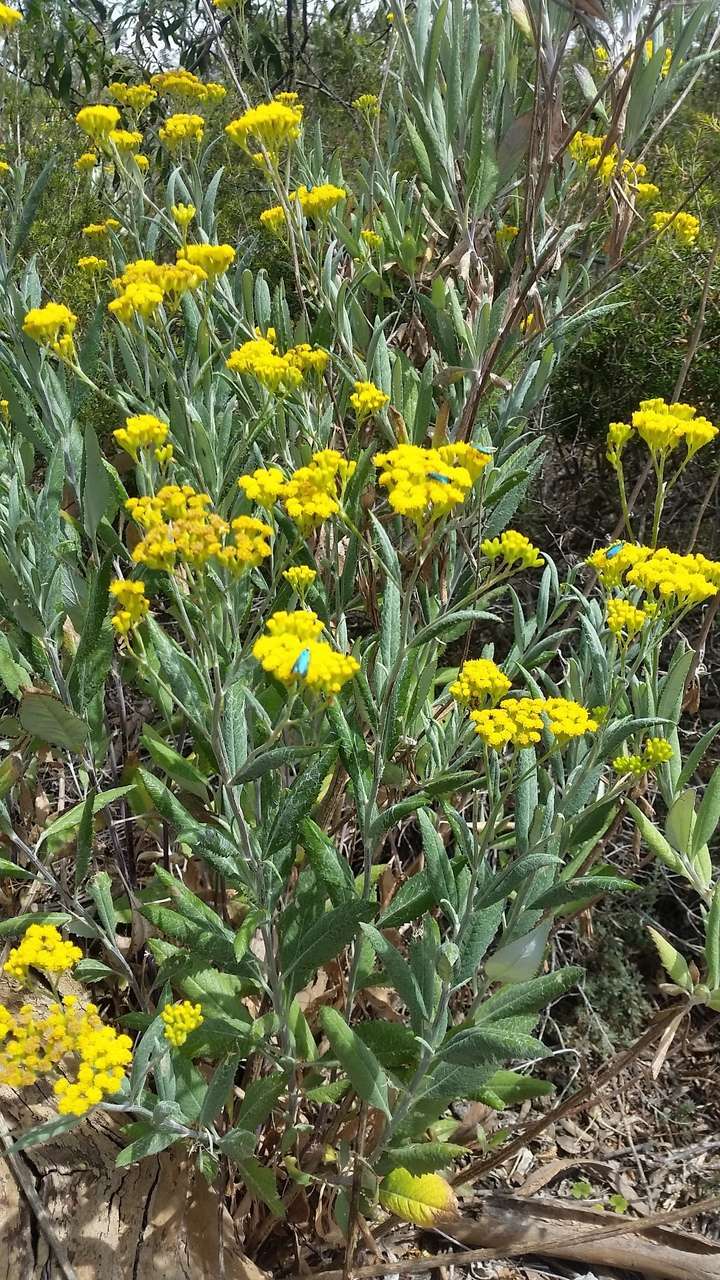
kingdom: Plantae
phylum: Tracheophyta
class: Magnoliopsida
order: Asterales
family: Asteraceae
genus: Senecio
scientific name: Senecio hypoleucus
